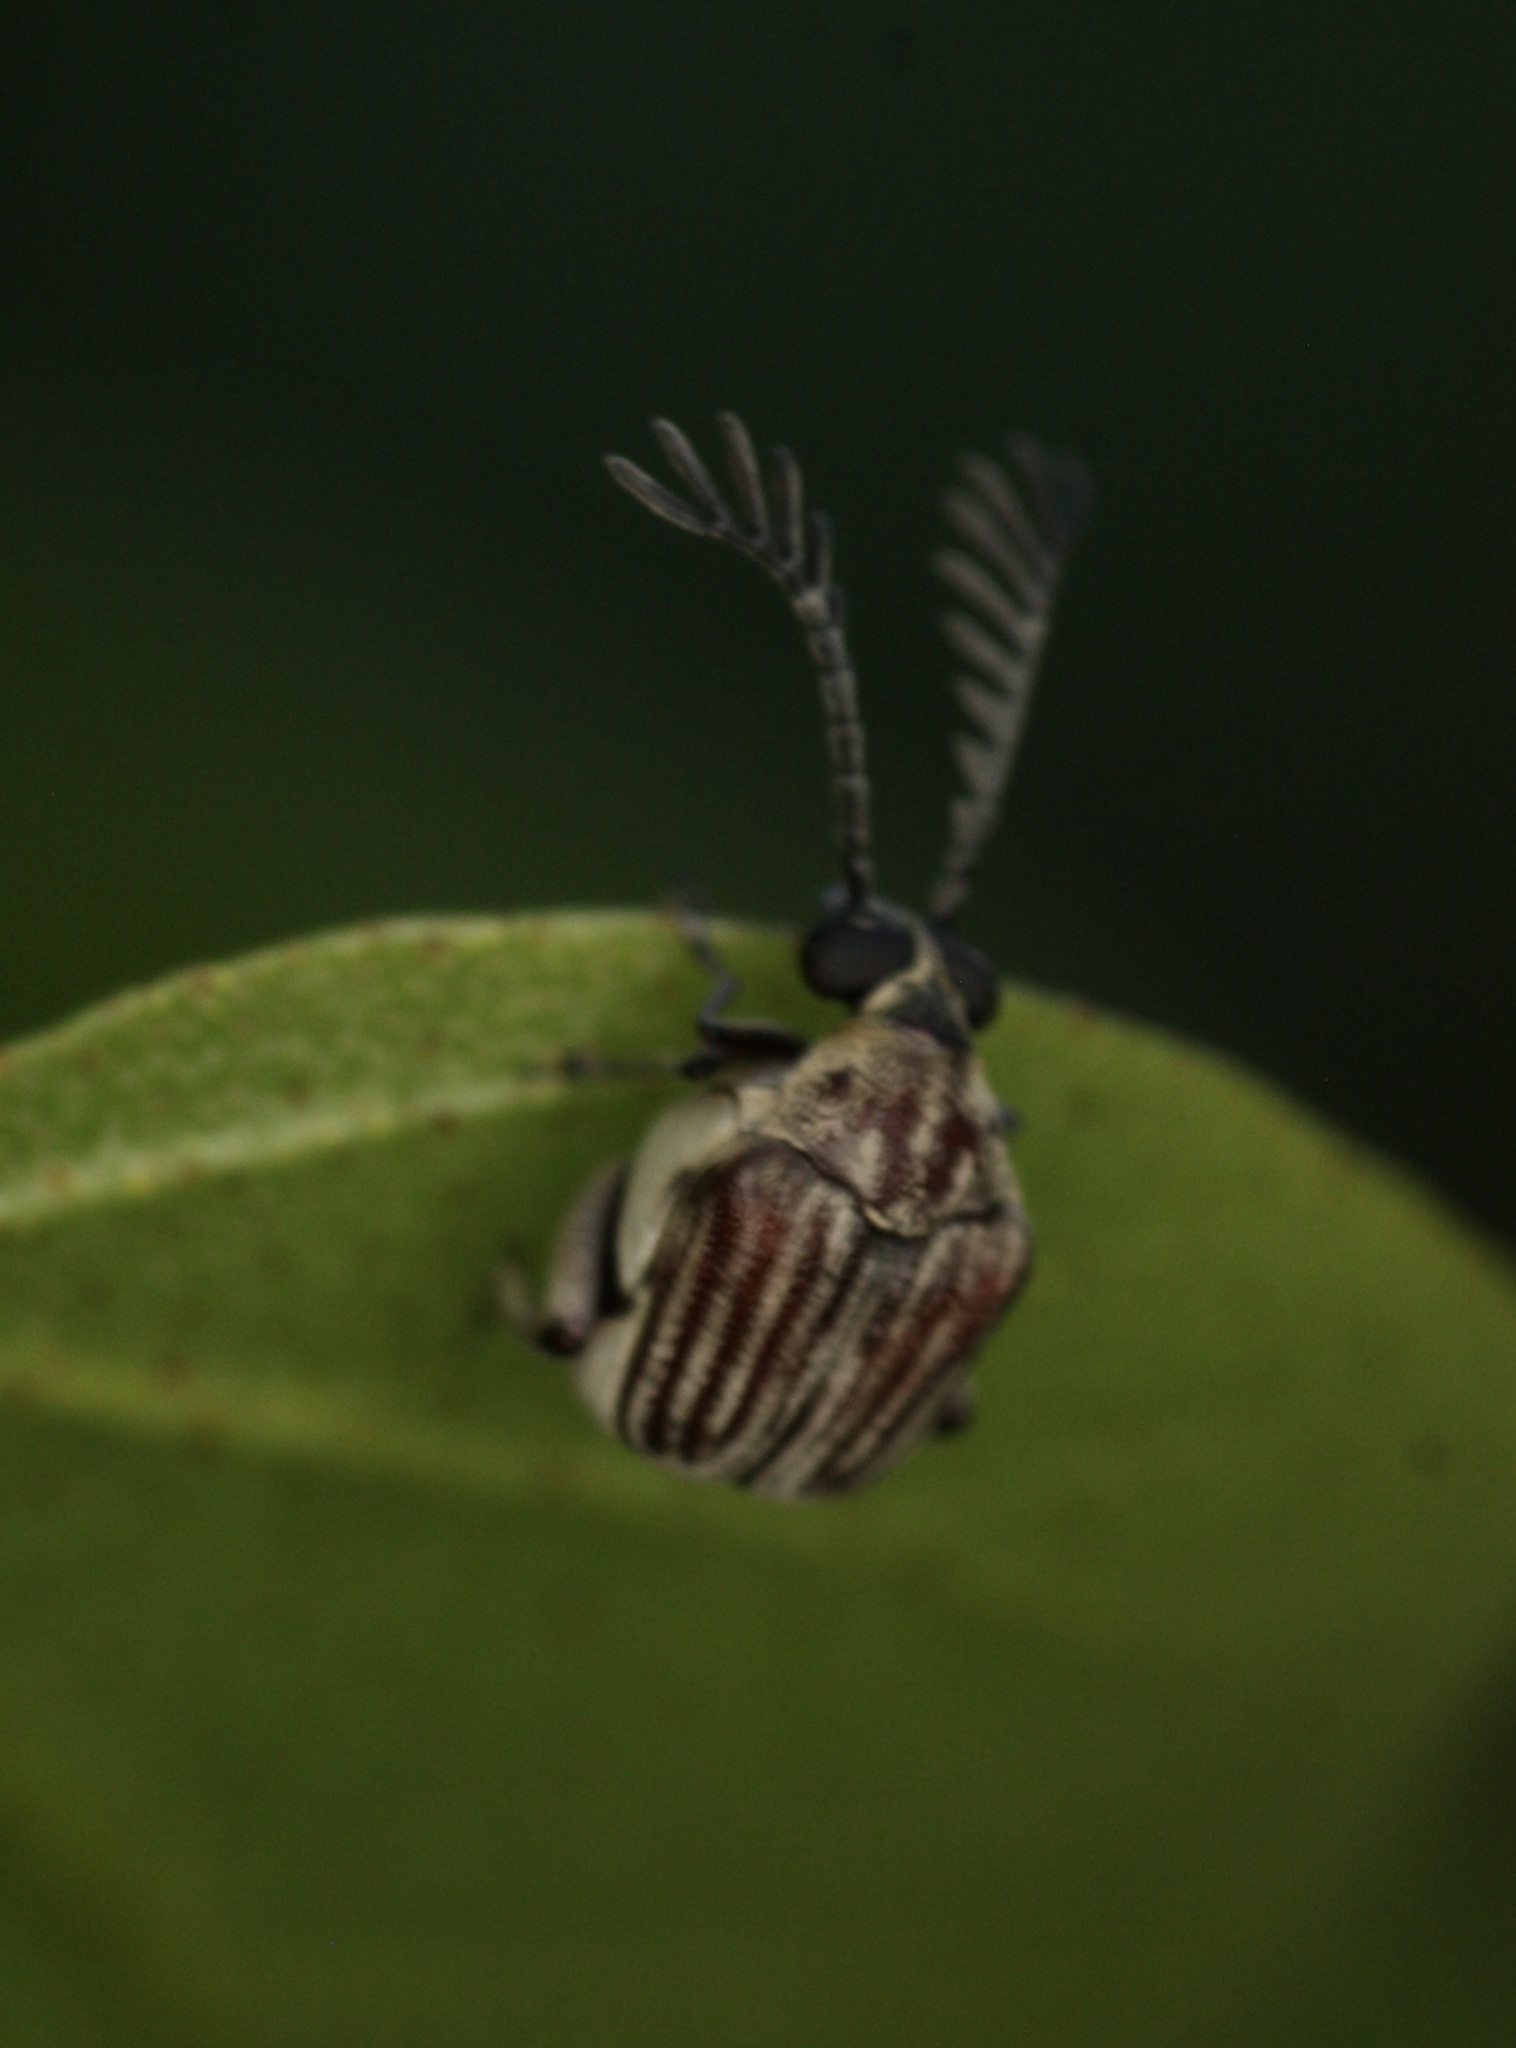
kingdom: Animalia
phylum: Arthropoda
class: Insecta
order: Coleoptera
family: Chrysomelidae
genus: Megacerus
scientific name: Megacerus leucospilus
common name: Leaf beetle
